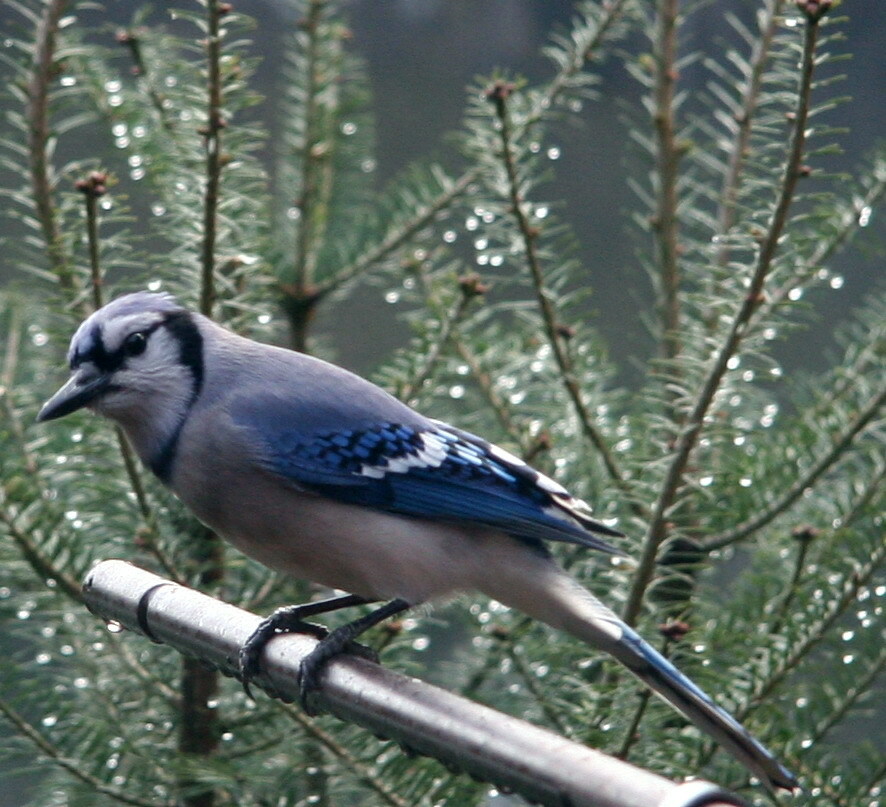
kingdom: Animalia
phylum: Chordata
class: Aves
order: Passeriformes
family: Corvidae
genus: Cyanocitta
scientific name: Cyanocitta cristata
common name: Blue jay
